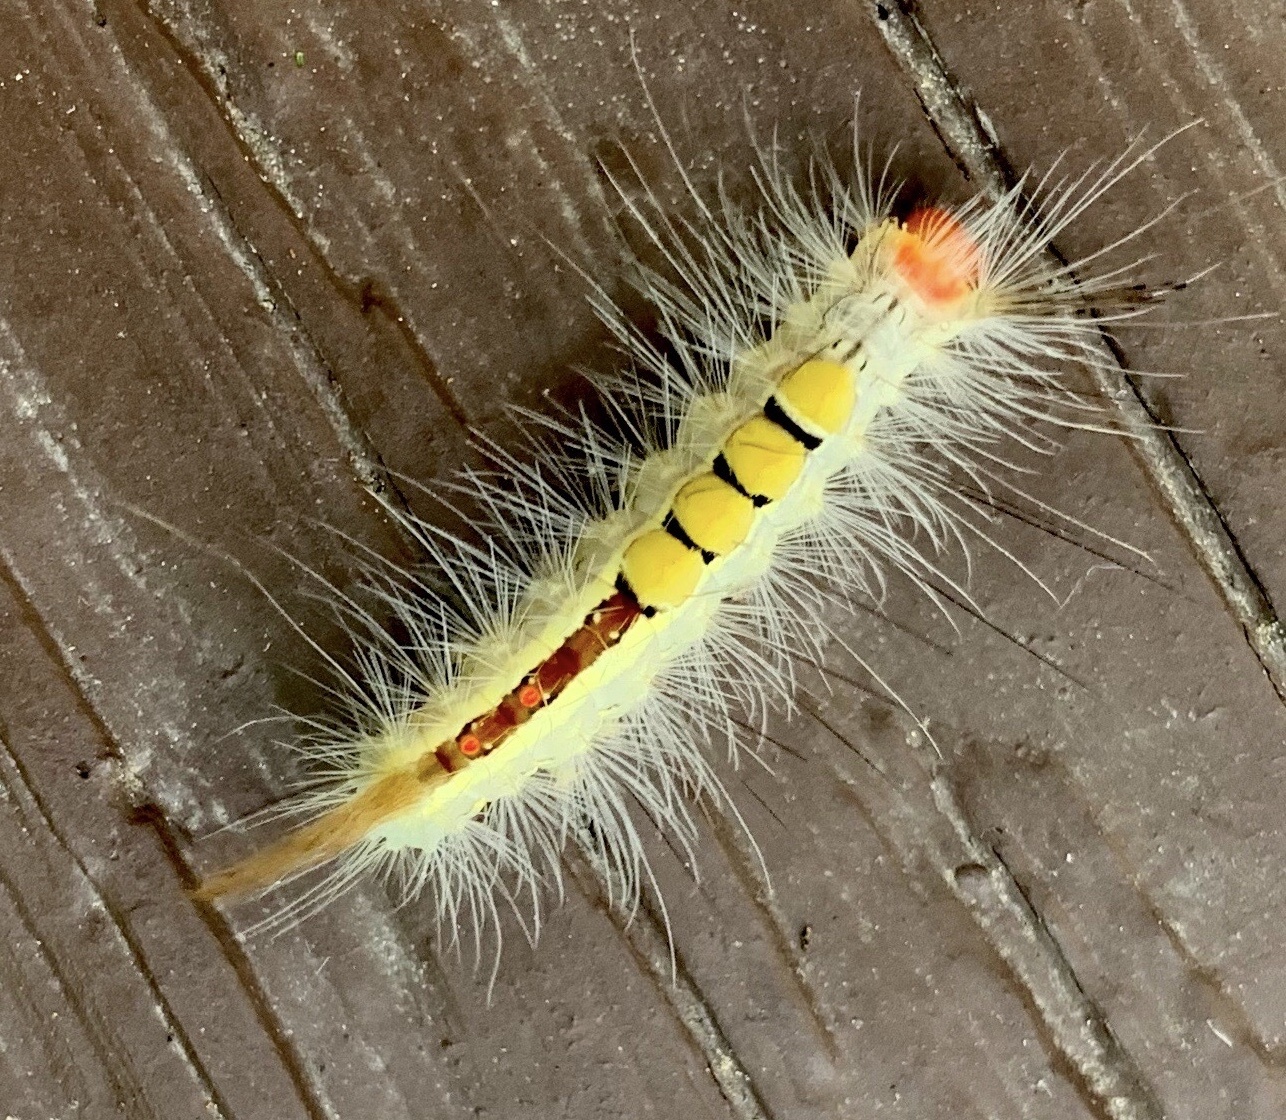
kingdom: Animalia
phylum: Arthropoda
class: Insecta
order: Lepidoptera
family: Erebidae
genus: Orgyia
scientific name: Orgyia leucostigma
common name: White-marked tussock moth
